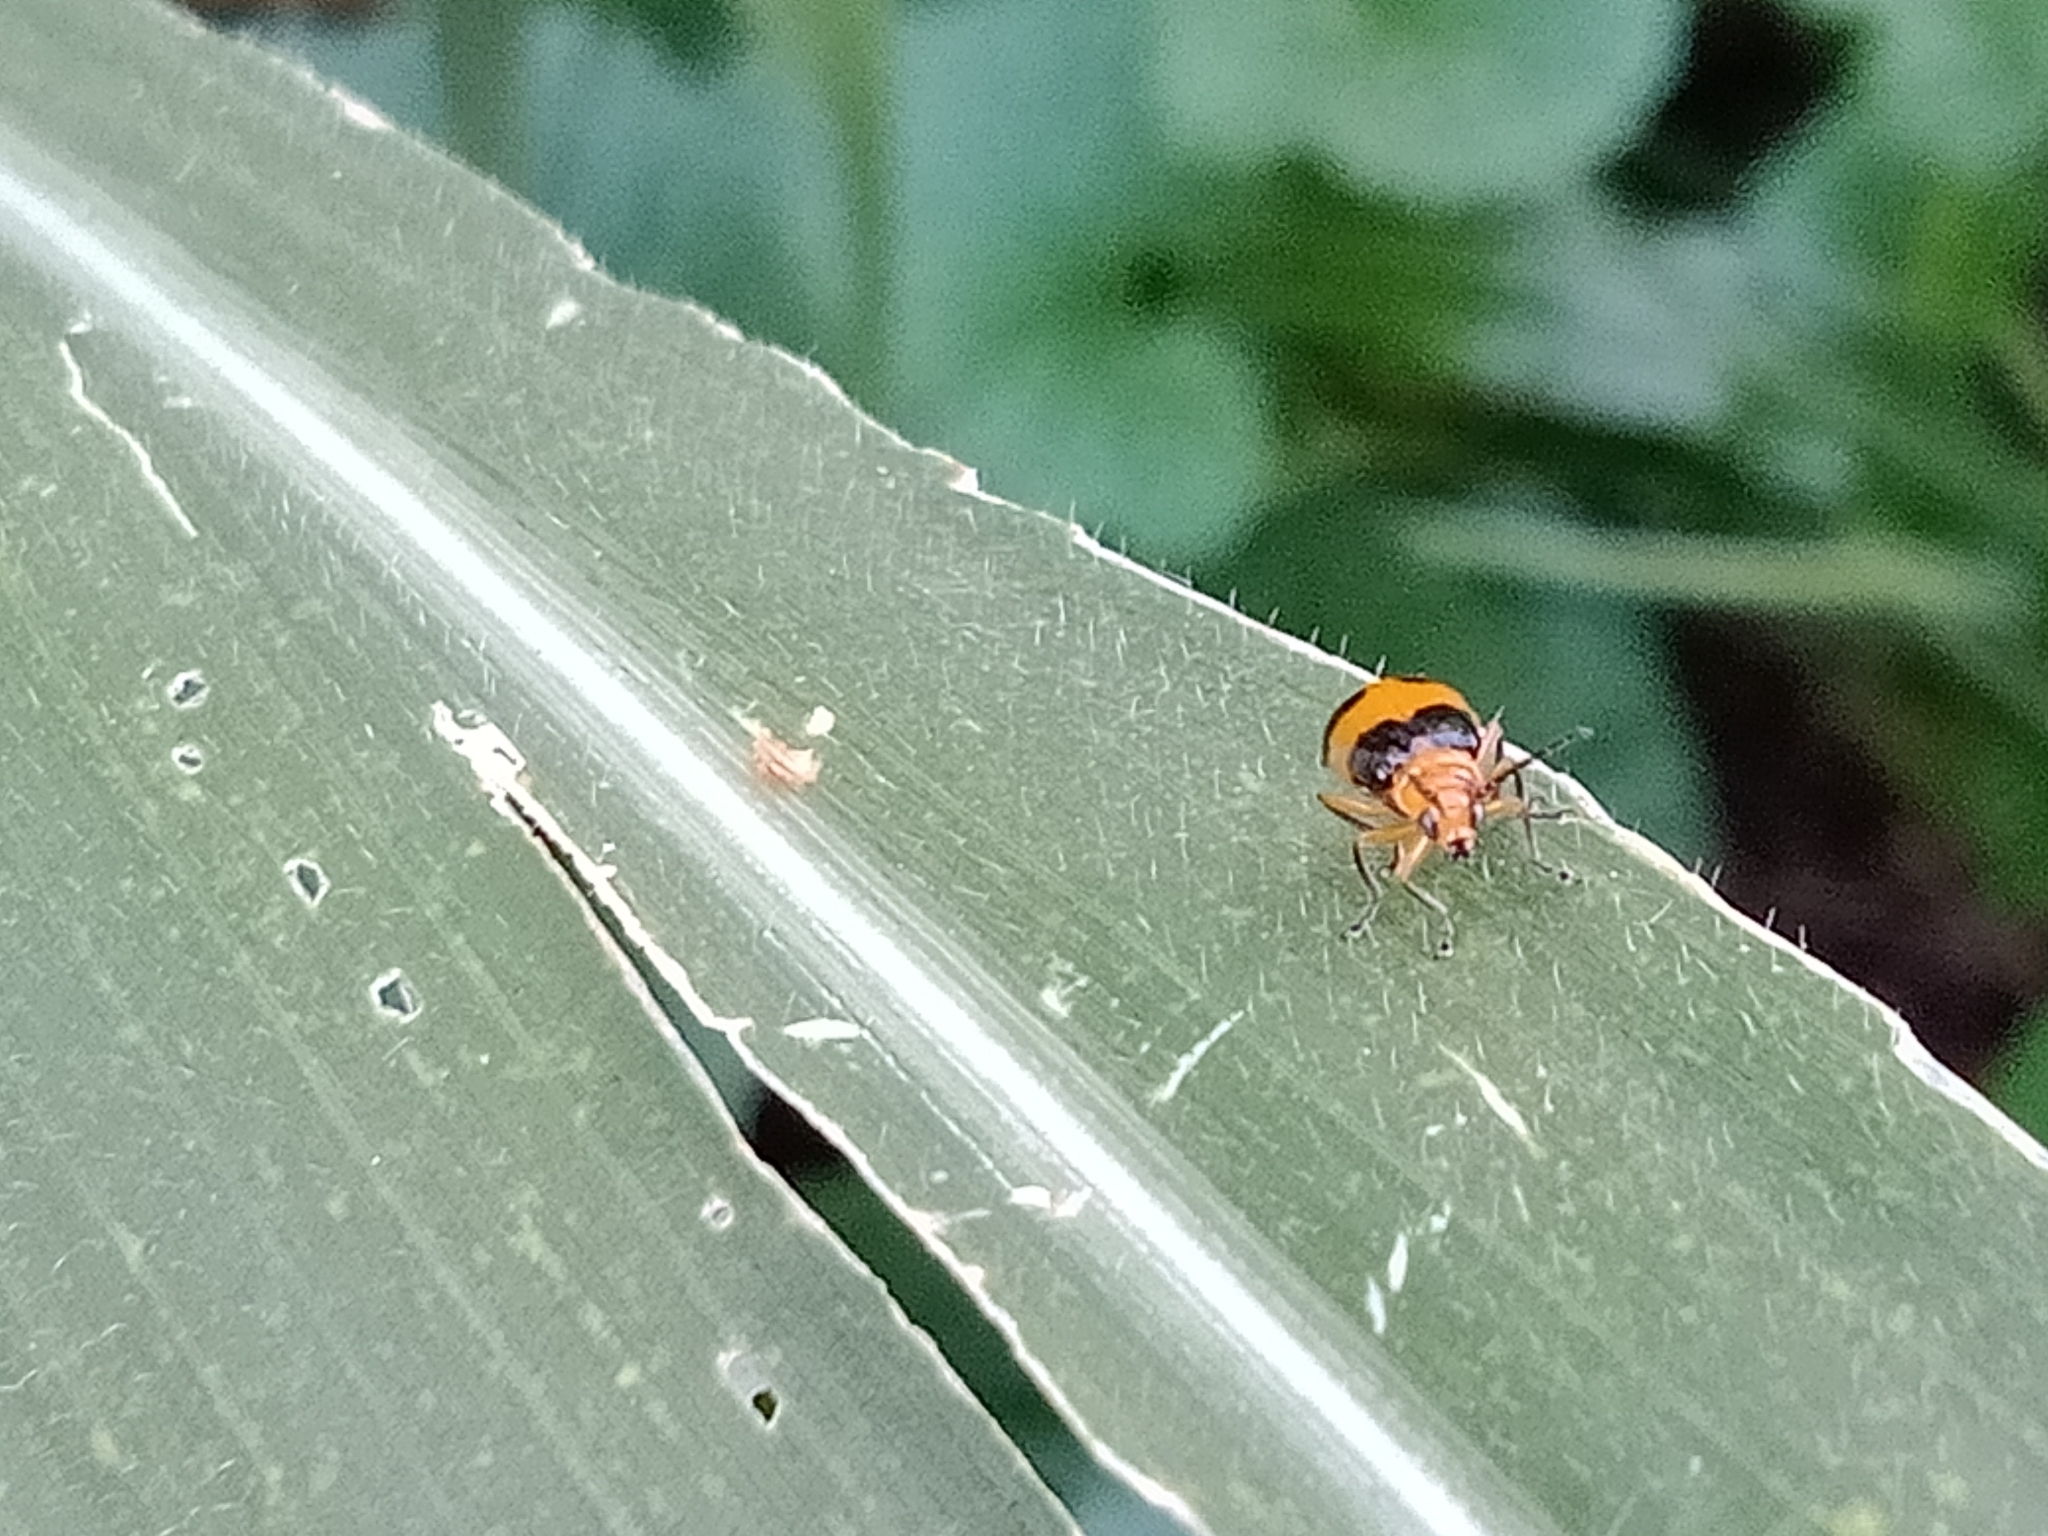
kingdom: Animalia
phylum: Arthropoda
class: Insecta
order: Coleoptera
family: Chrysomelidae
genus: Aulacophora
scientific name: Aulacophora
